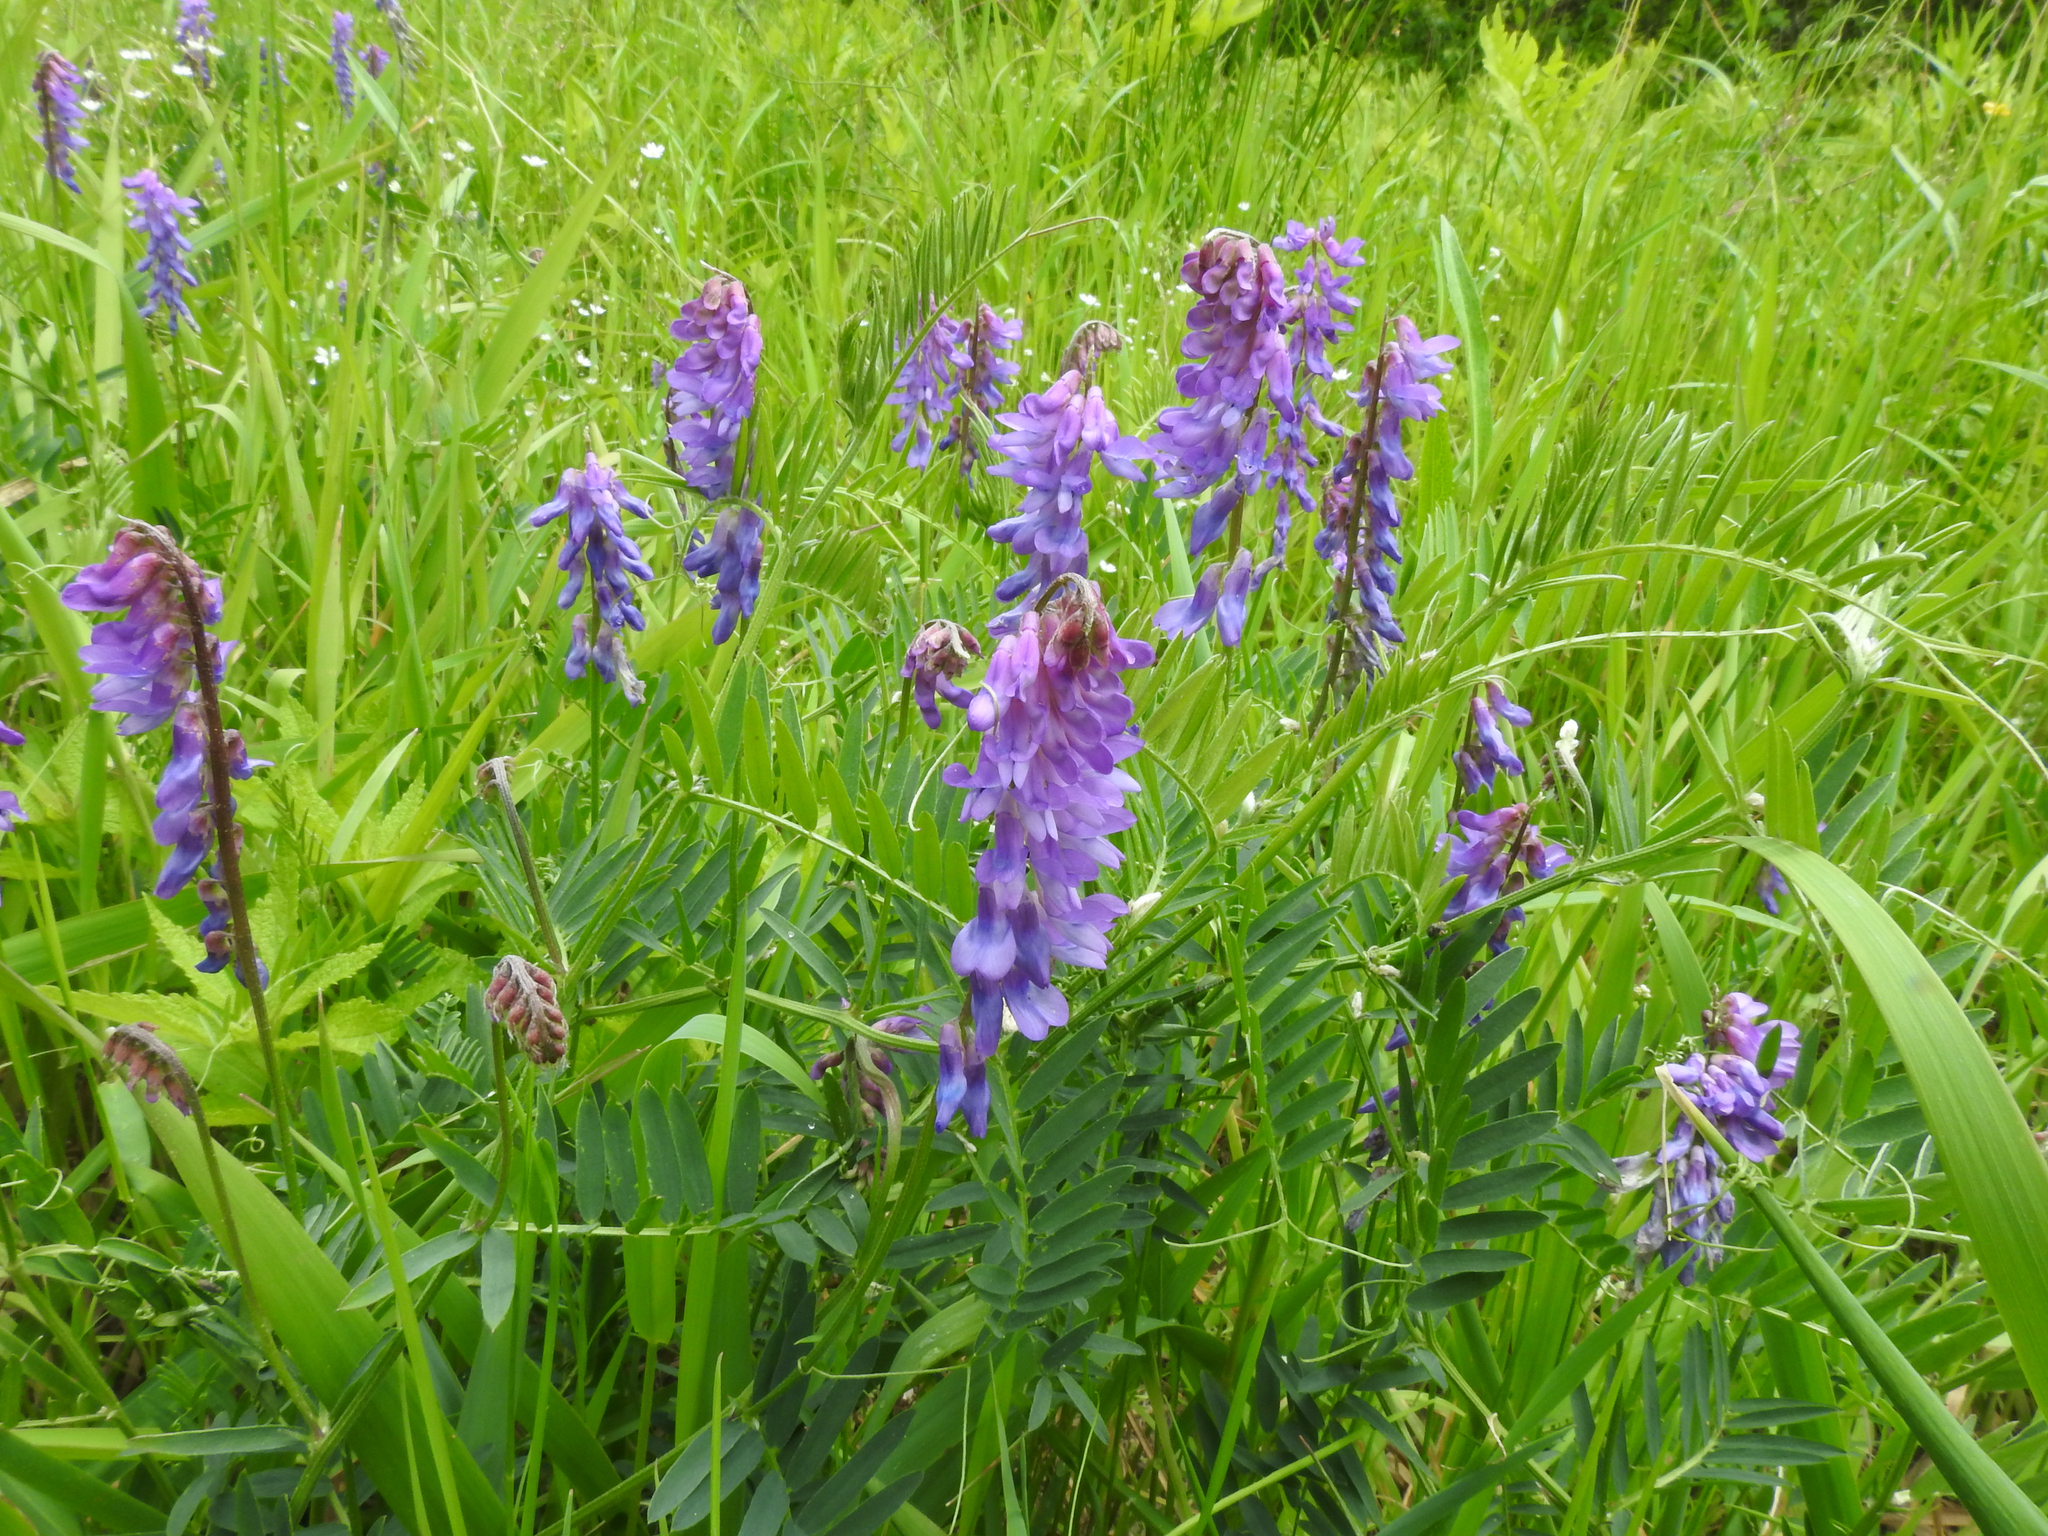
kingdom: Plantae
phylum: Tracheophyta
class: Magnoliopsida
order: Fabales
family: Fabaceae
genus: Vicia
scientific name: Vicia cracca
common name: Bird vetch
